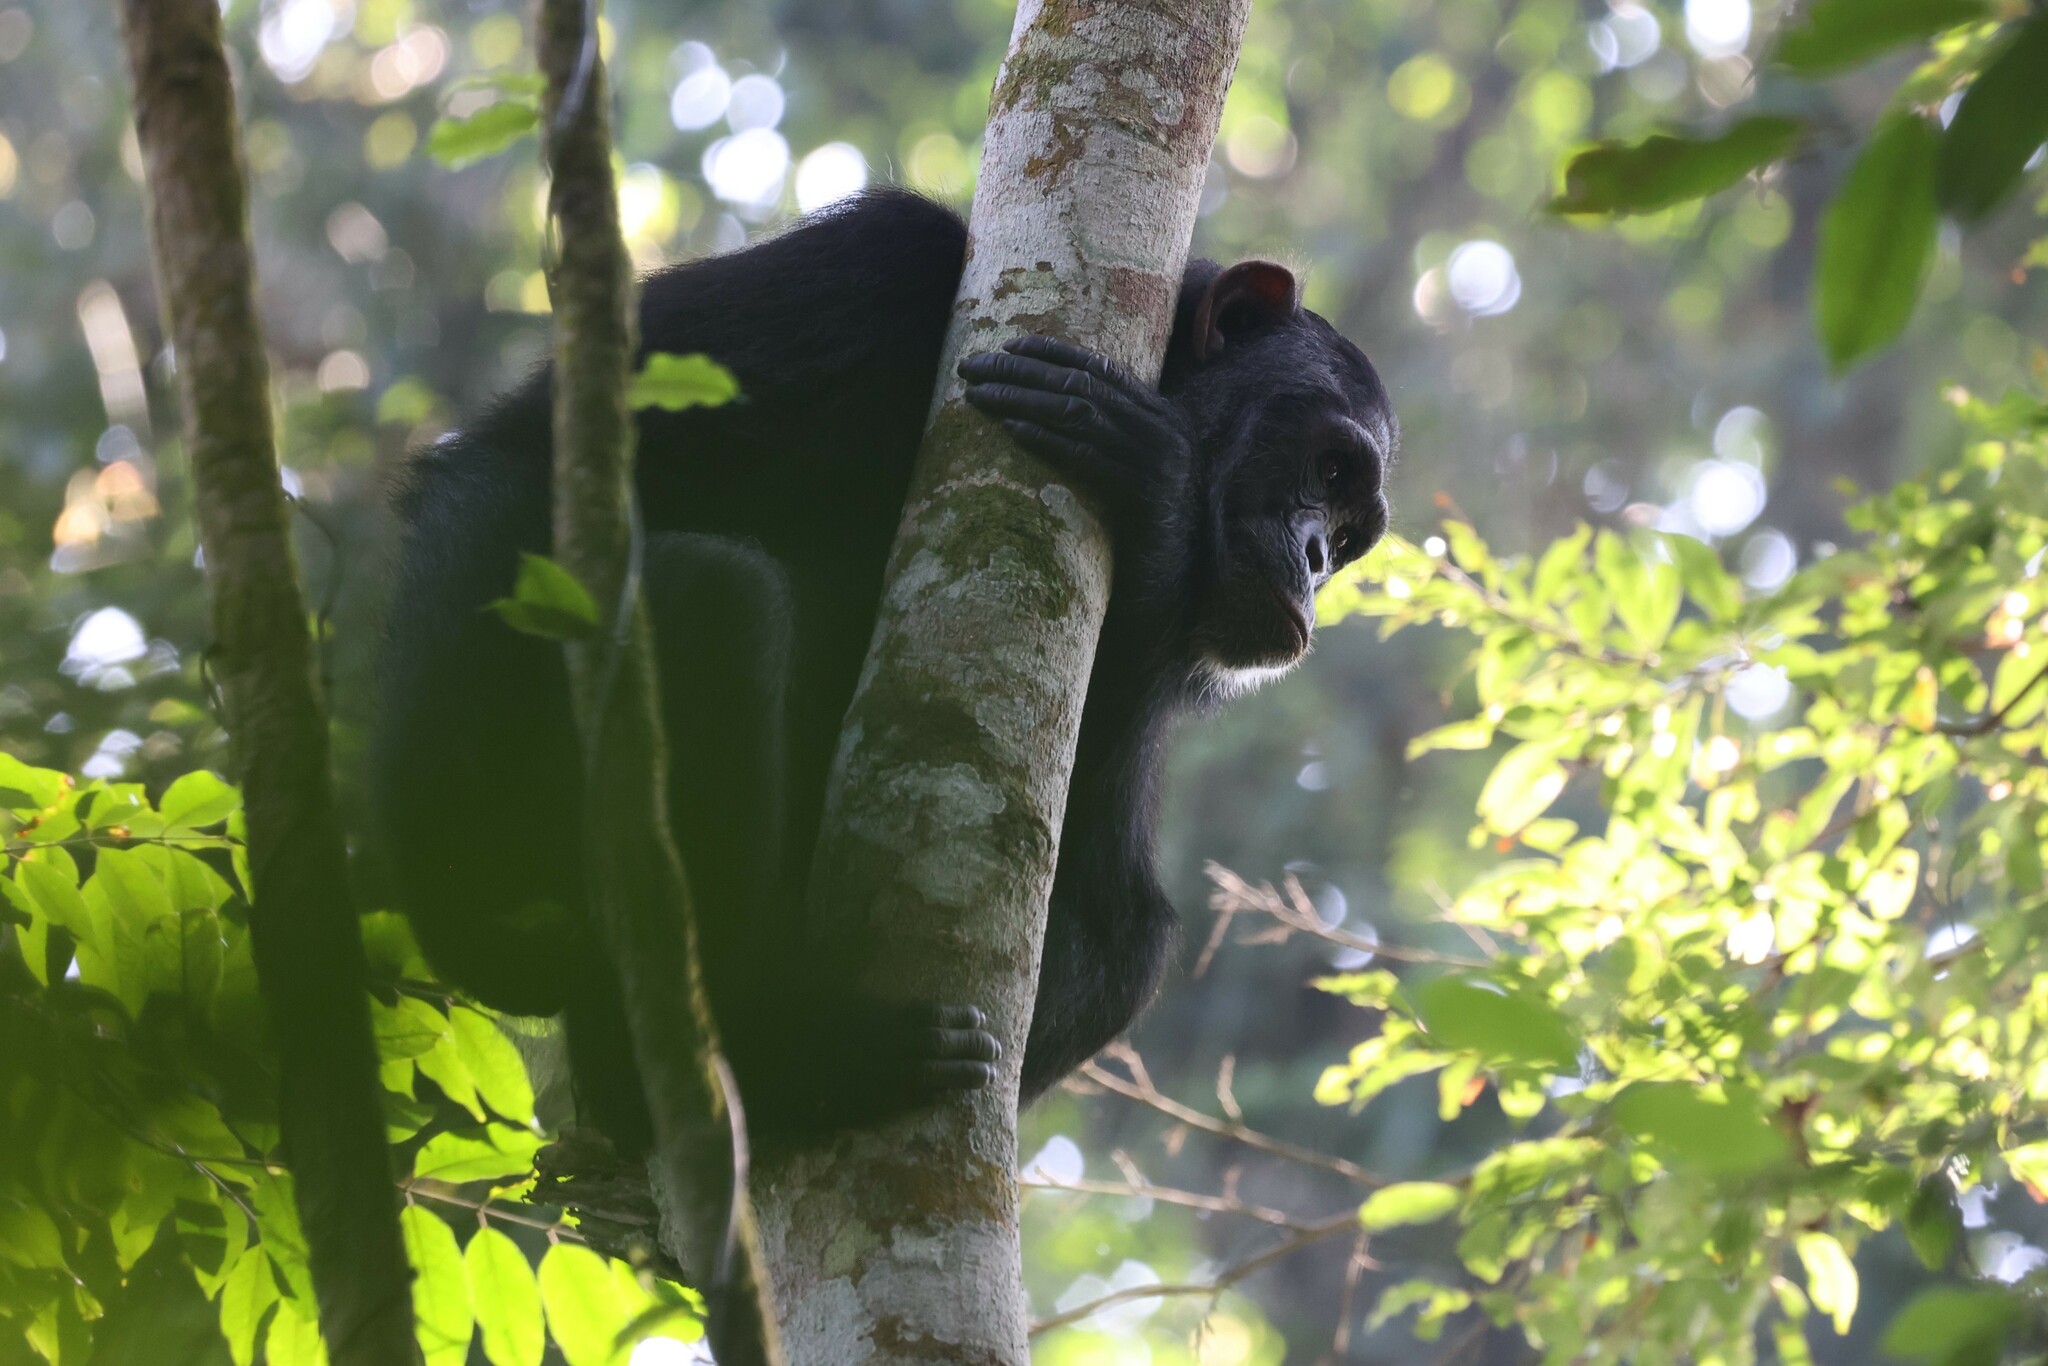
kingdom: Animalia
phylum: Chordata
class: Mammalia
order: Primates
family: Hominidae
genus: Pan
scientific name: Pan troglodytes
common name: Chimpanzee
